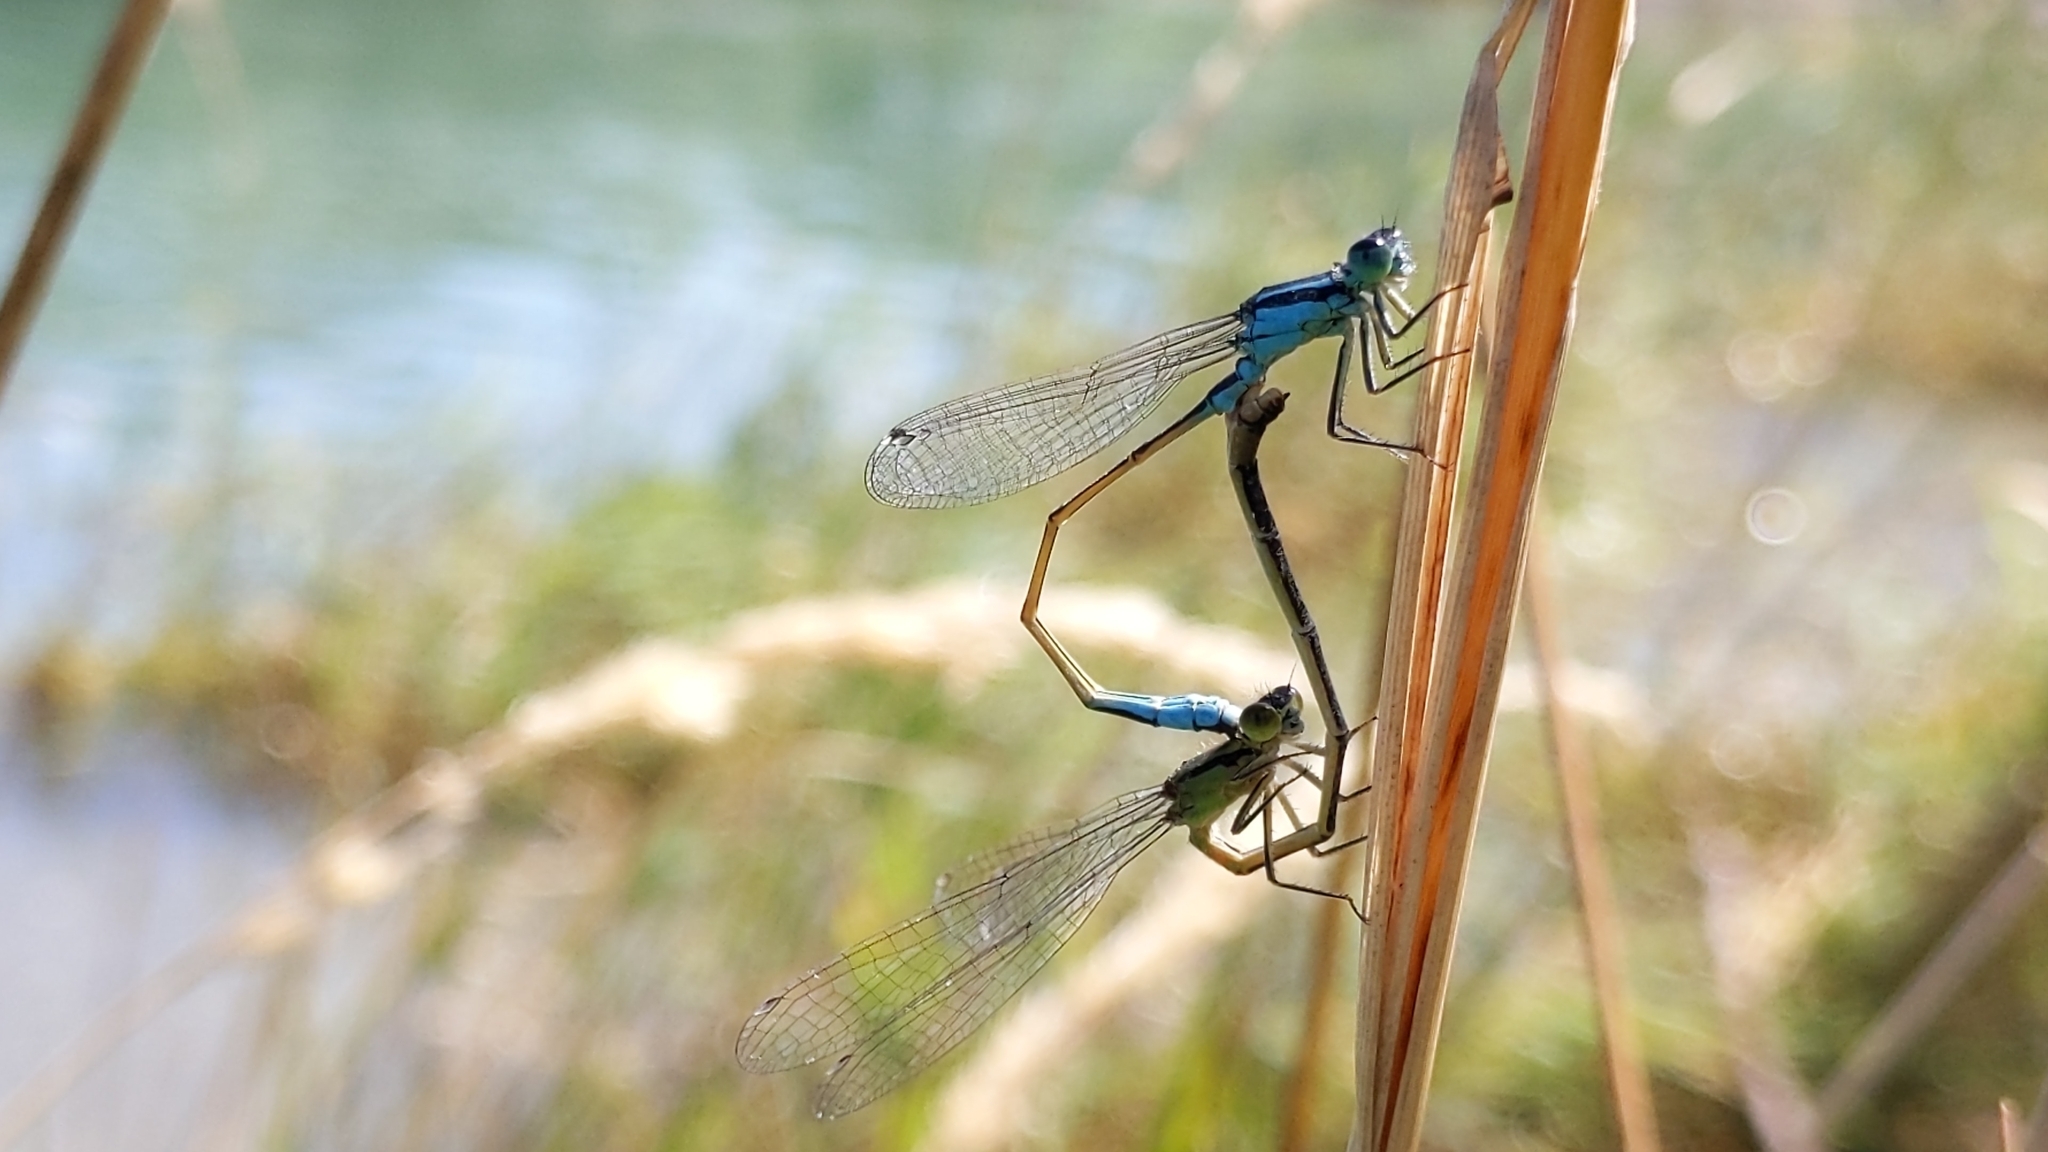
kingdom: Animalia
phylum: Arthropoda
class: Insecta
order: Odonata
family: Coenagrionidae
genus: Ischnura
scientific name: Ischnura elegans
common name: Blue-tailed damselfly
